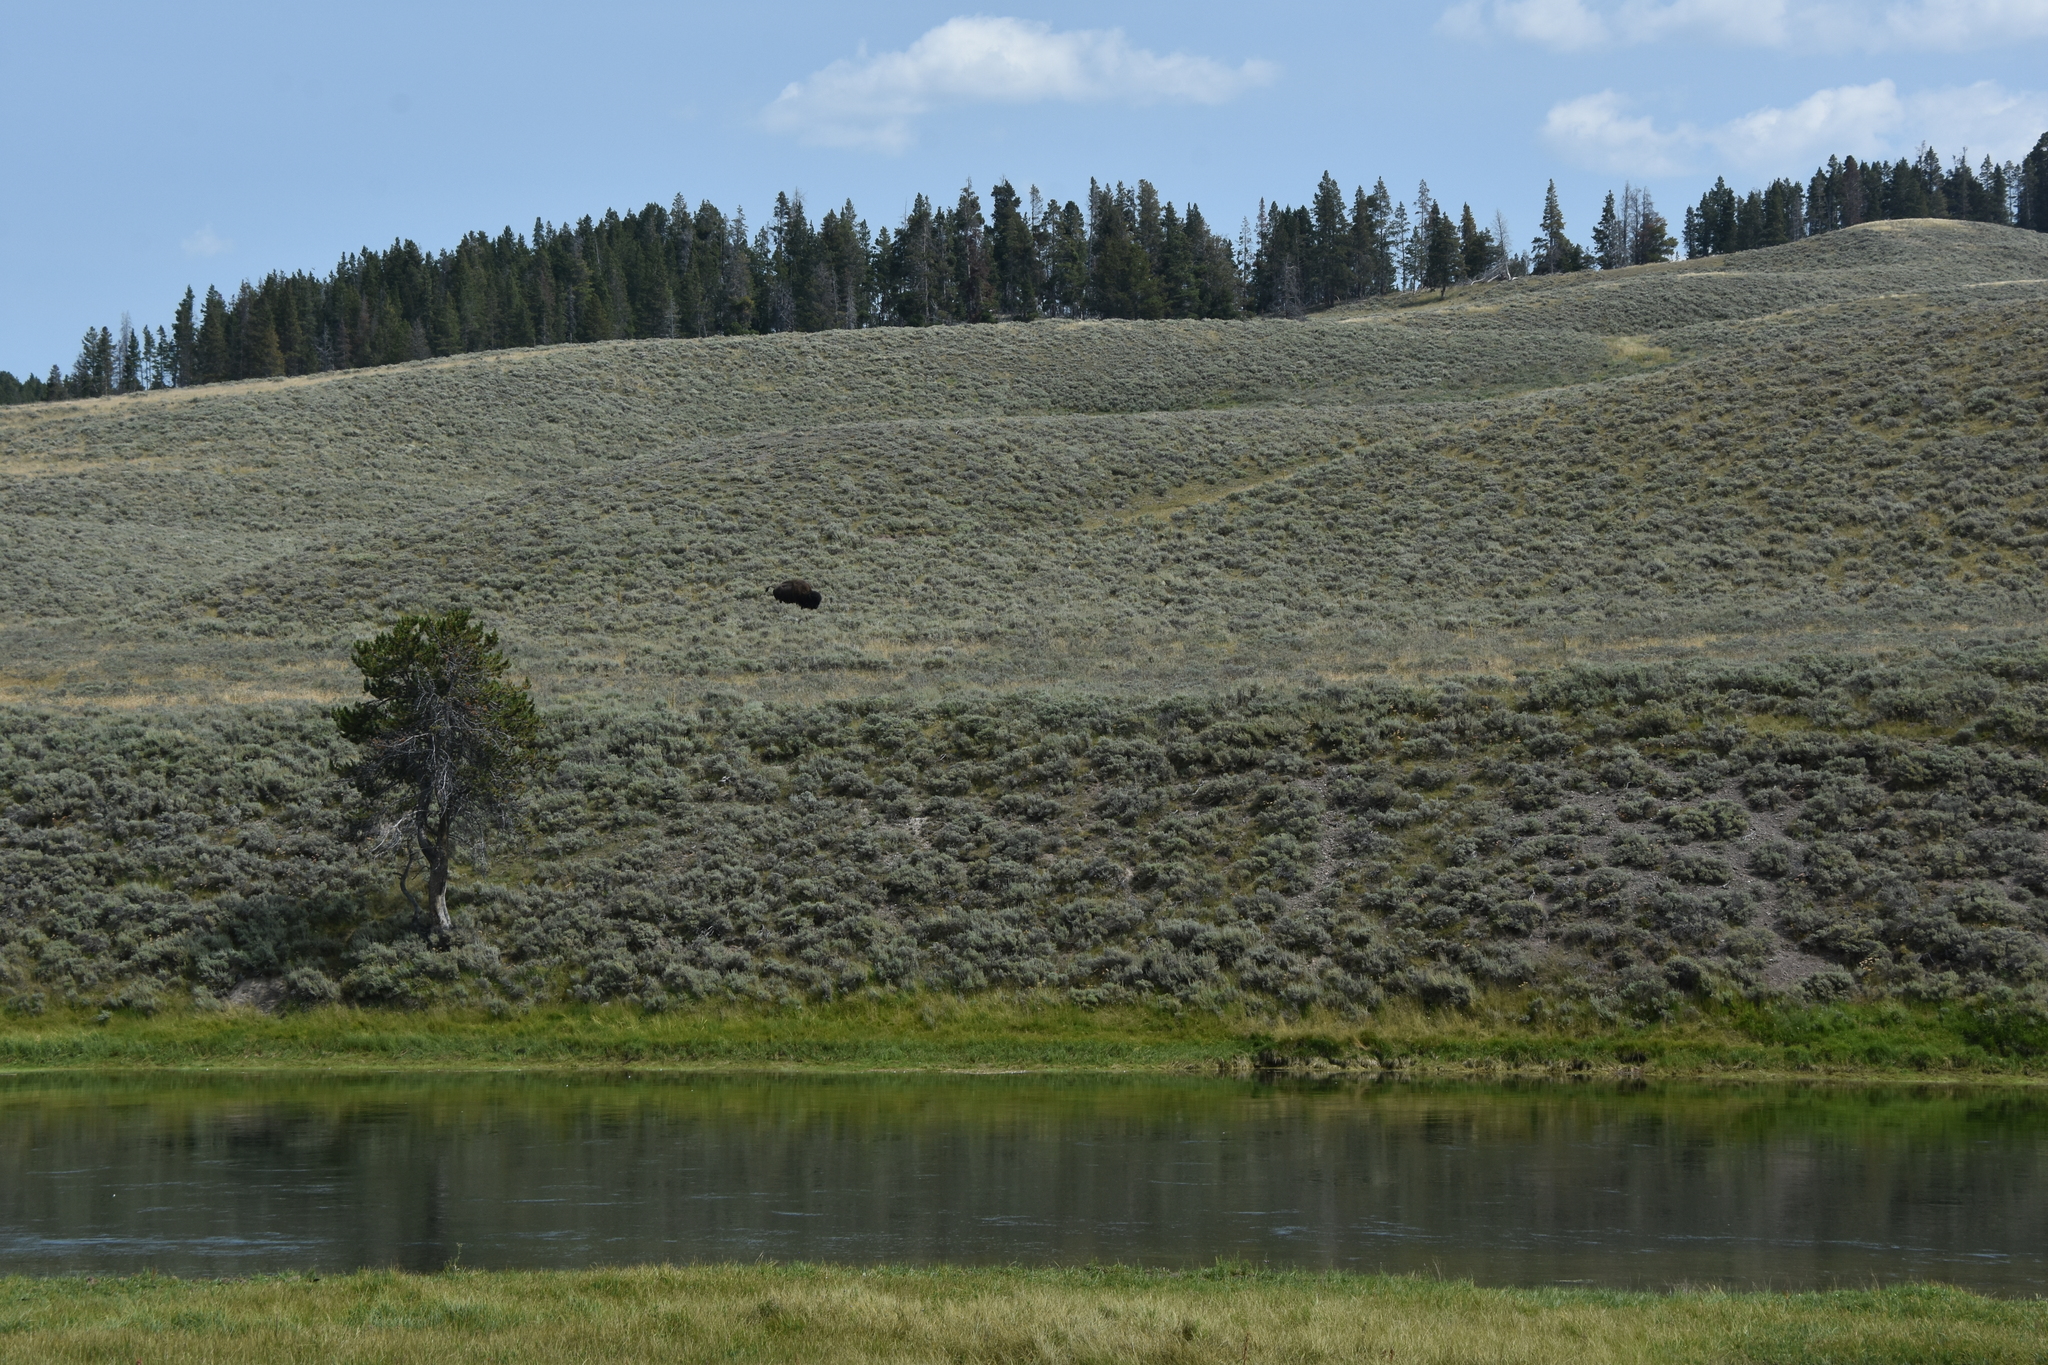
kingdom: Animalia
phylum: Chordata
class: Mammalia
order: Artiodactyla
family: Bovidae
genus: Bison
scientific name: Bison bison
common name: American bison
